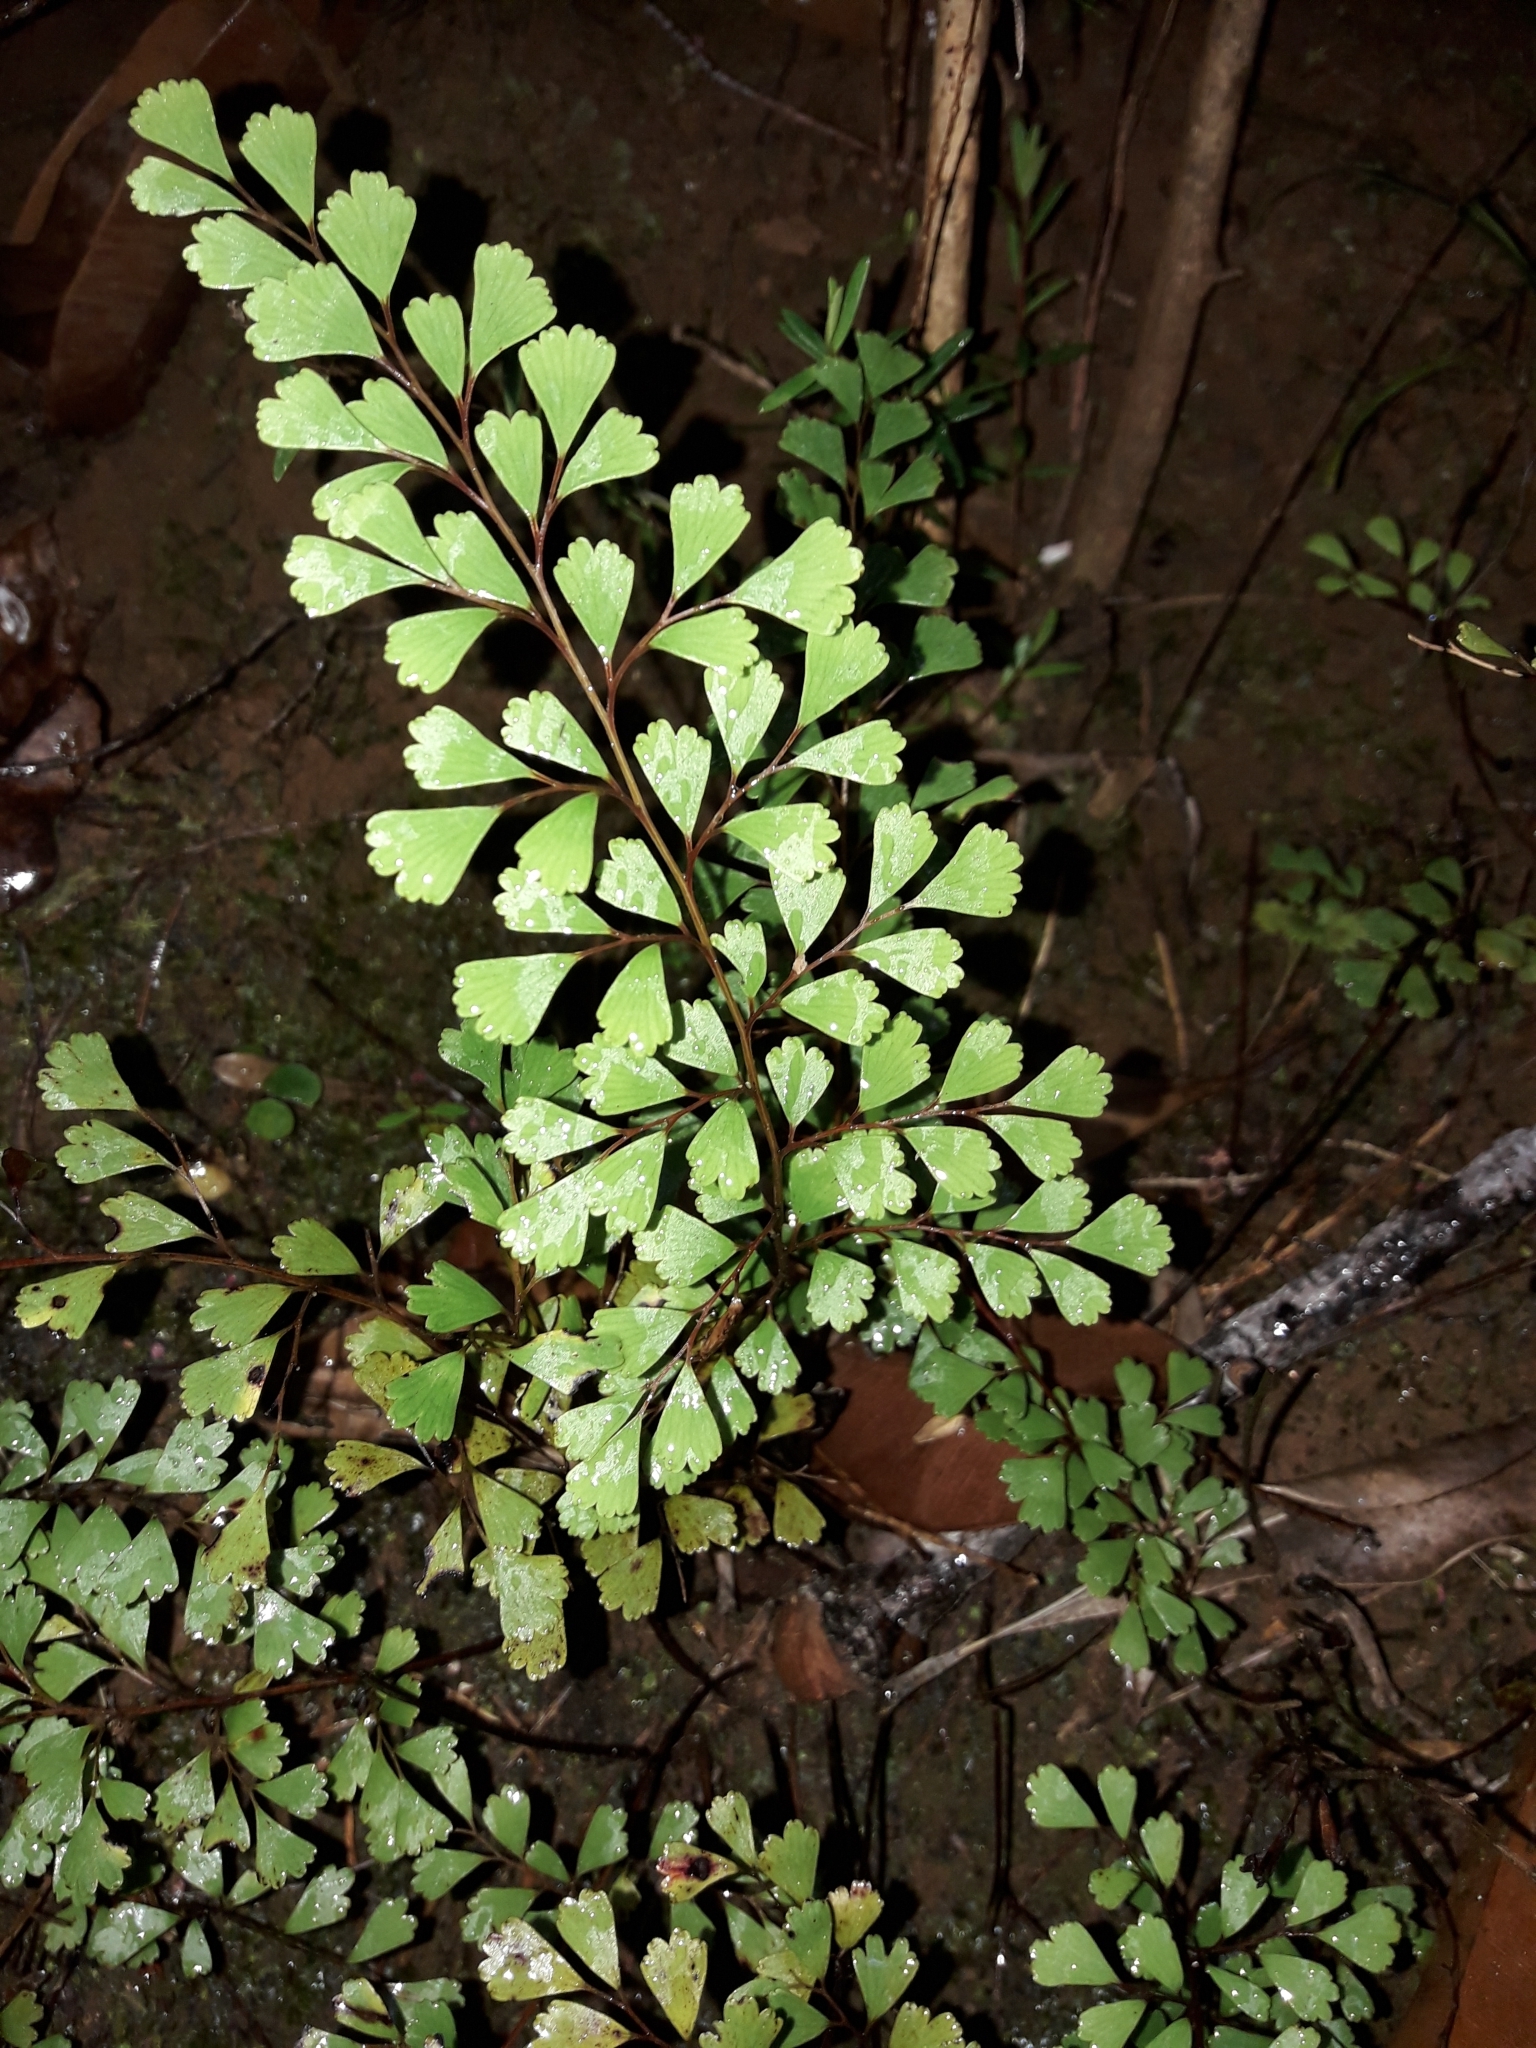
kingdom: Plantae
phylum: Tracheophyta
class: Polypodiopsida
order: Polypodiales
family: Lindsaeaceae
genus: Odontosoria
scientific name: Odontosoria alutacea
